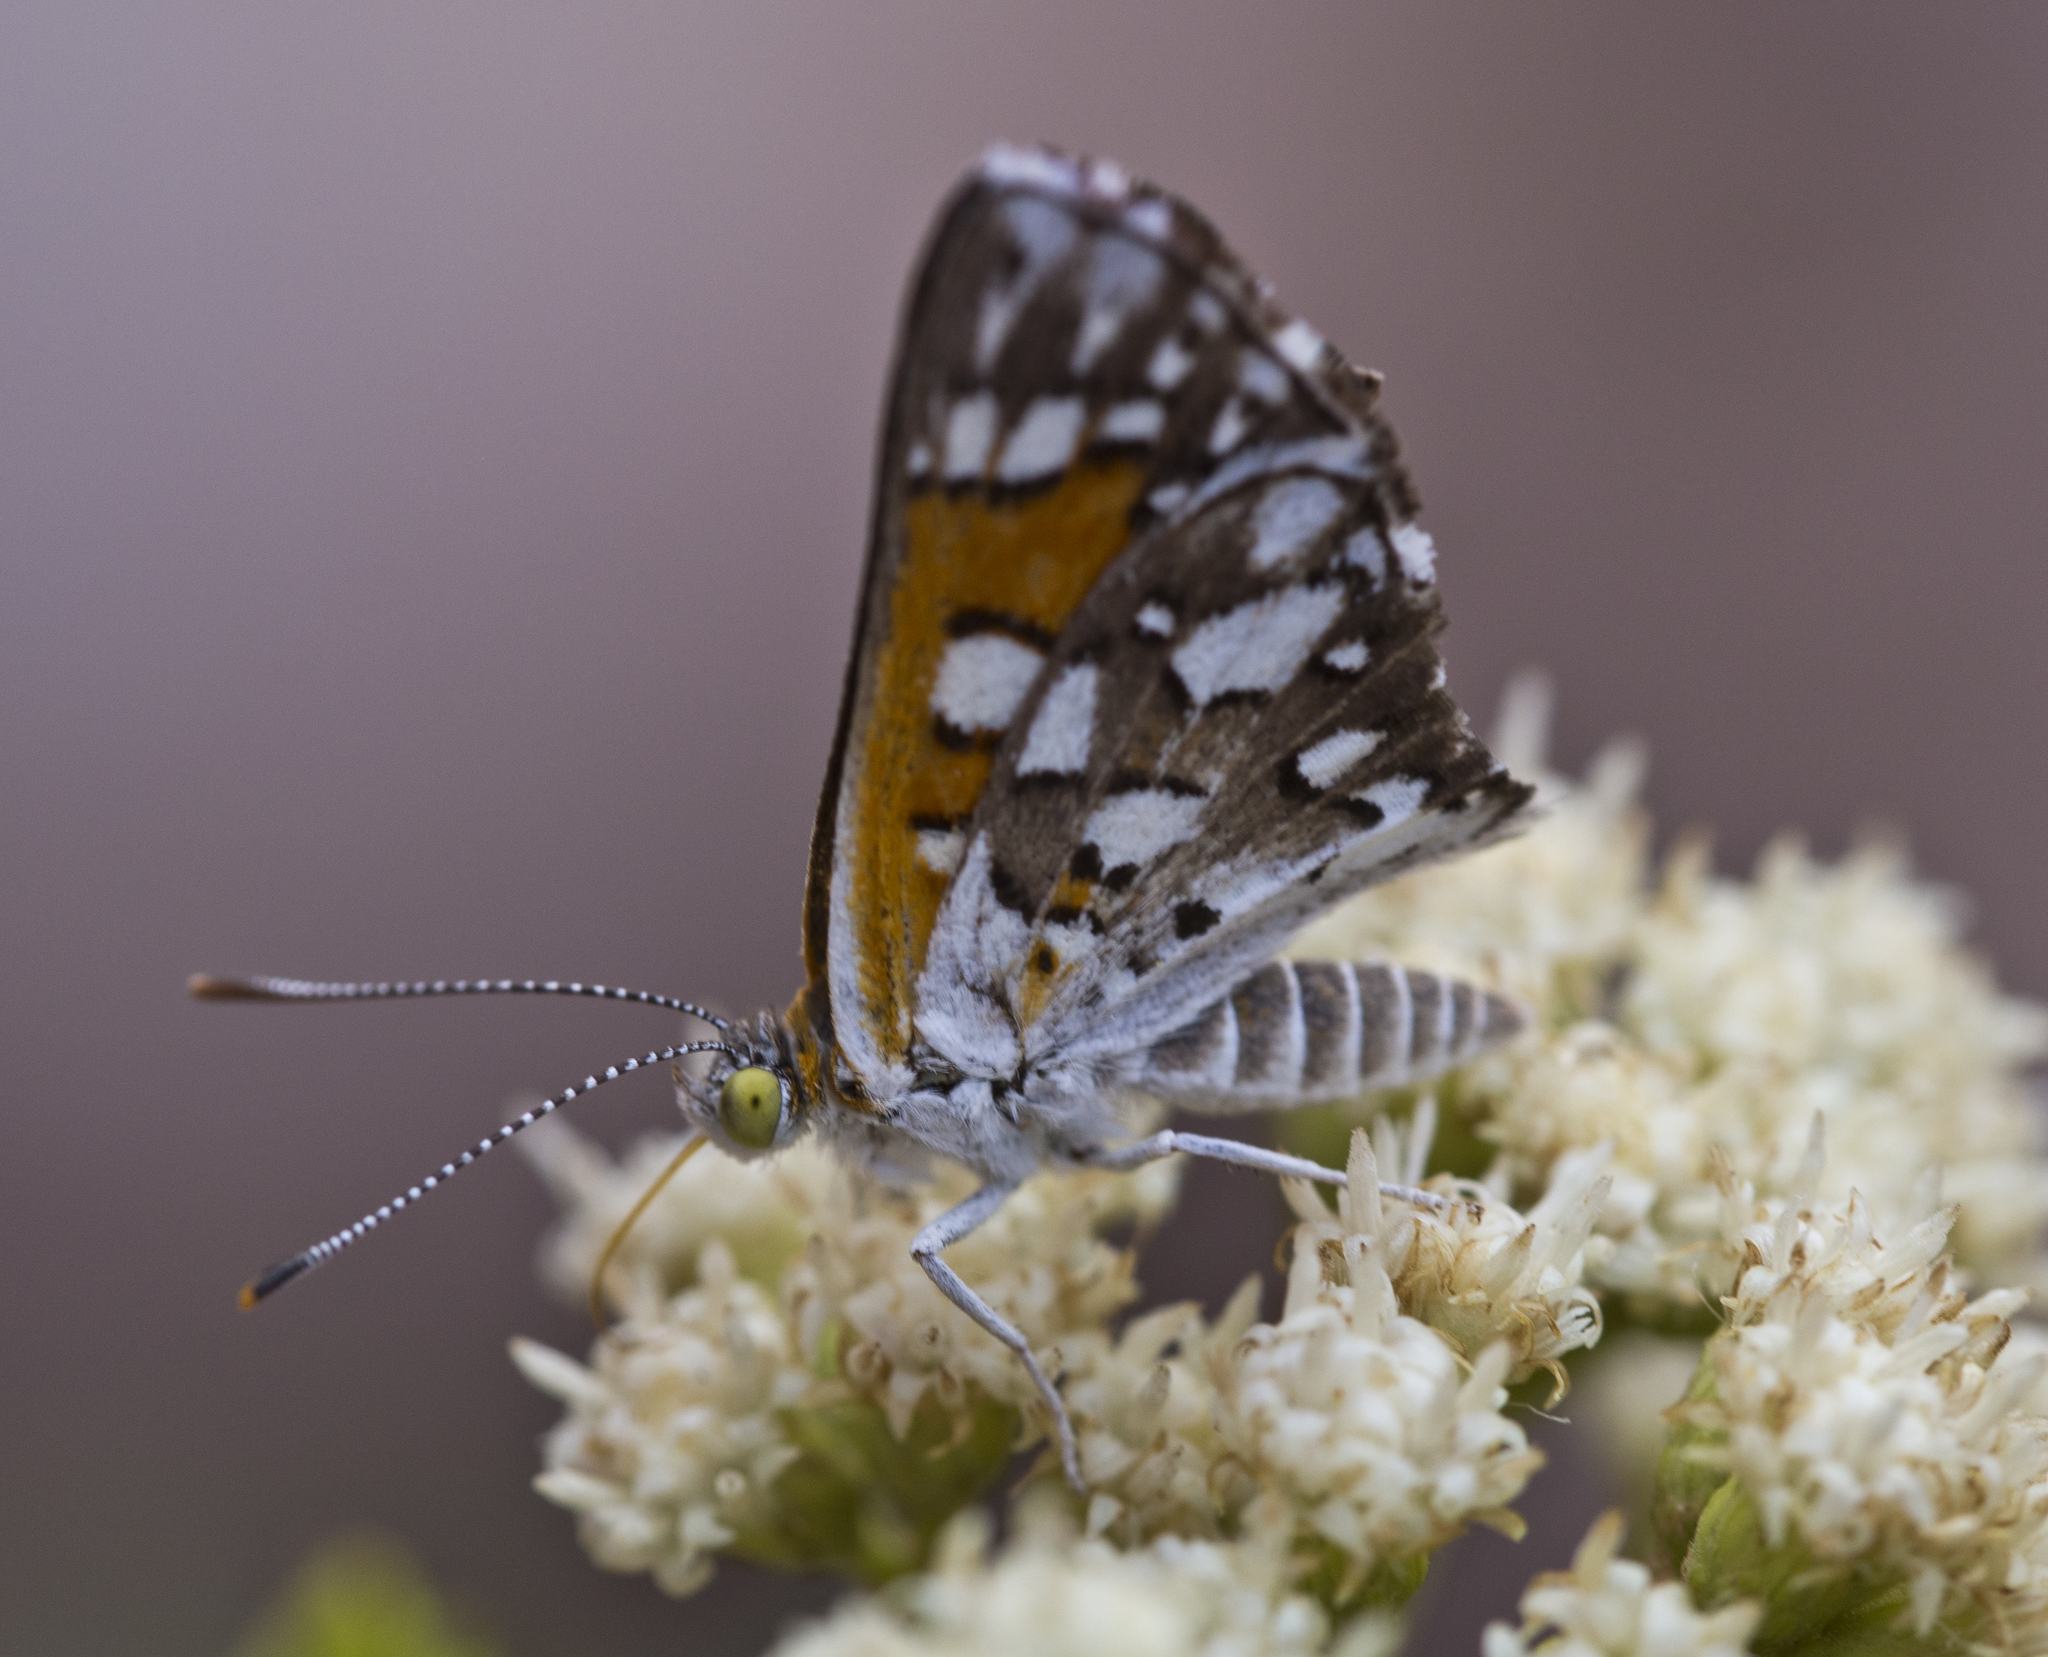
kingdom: Animalia
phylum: Arthropoda
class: Insecta
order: Lepidoptera
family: Riodinidae
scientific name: Riodinidae
